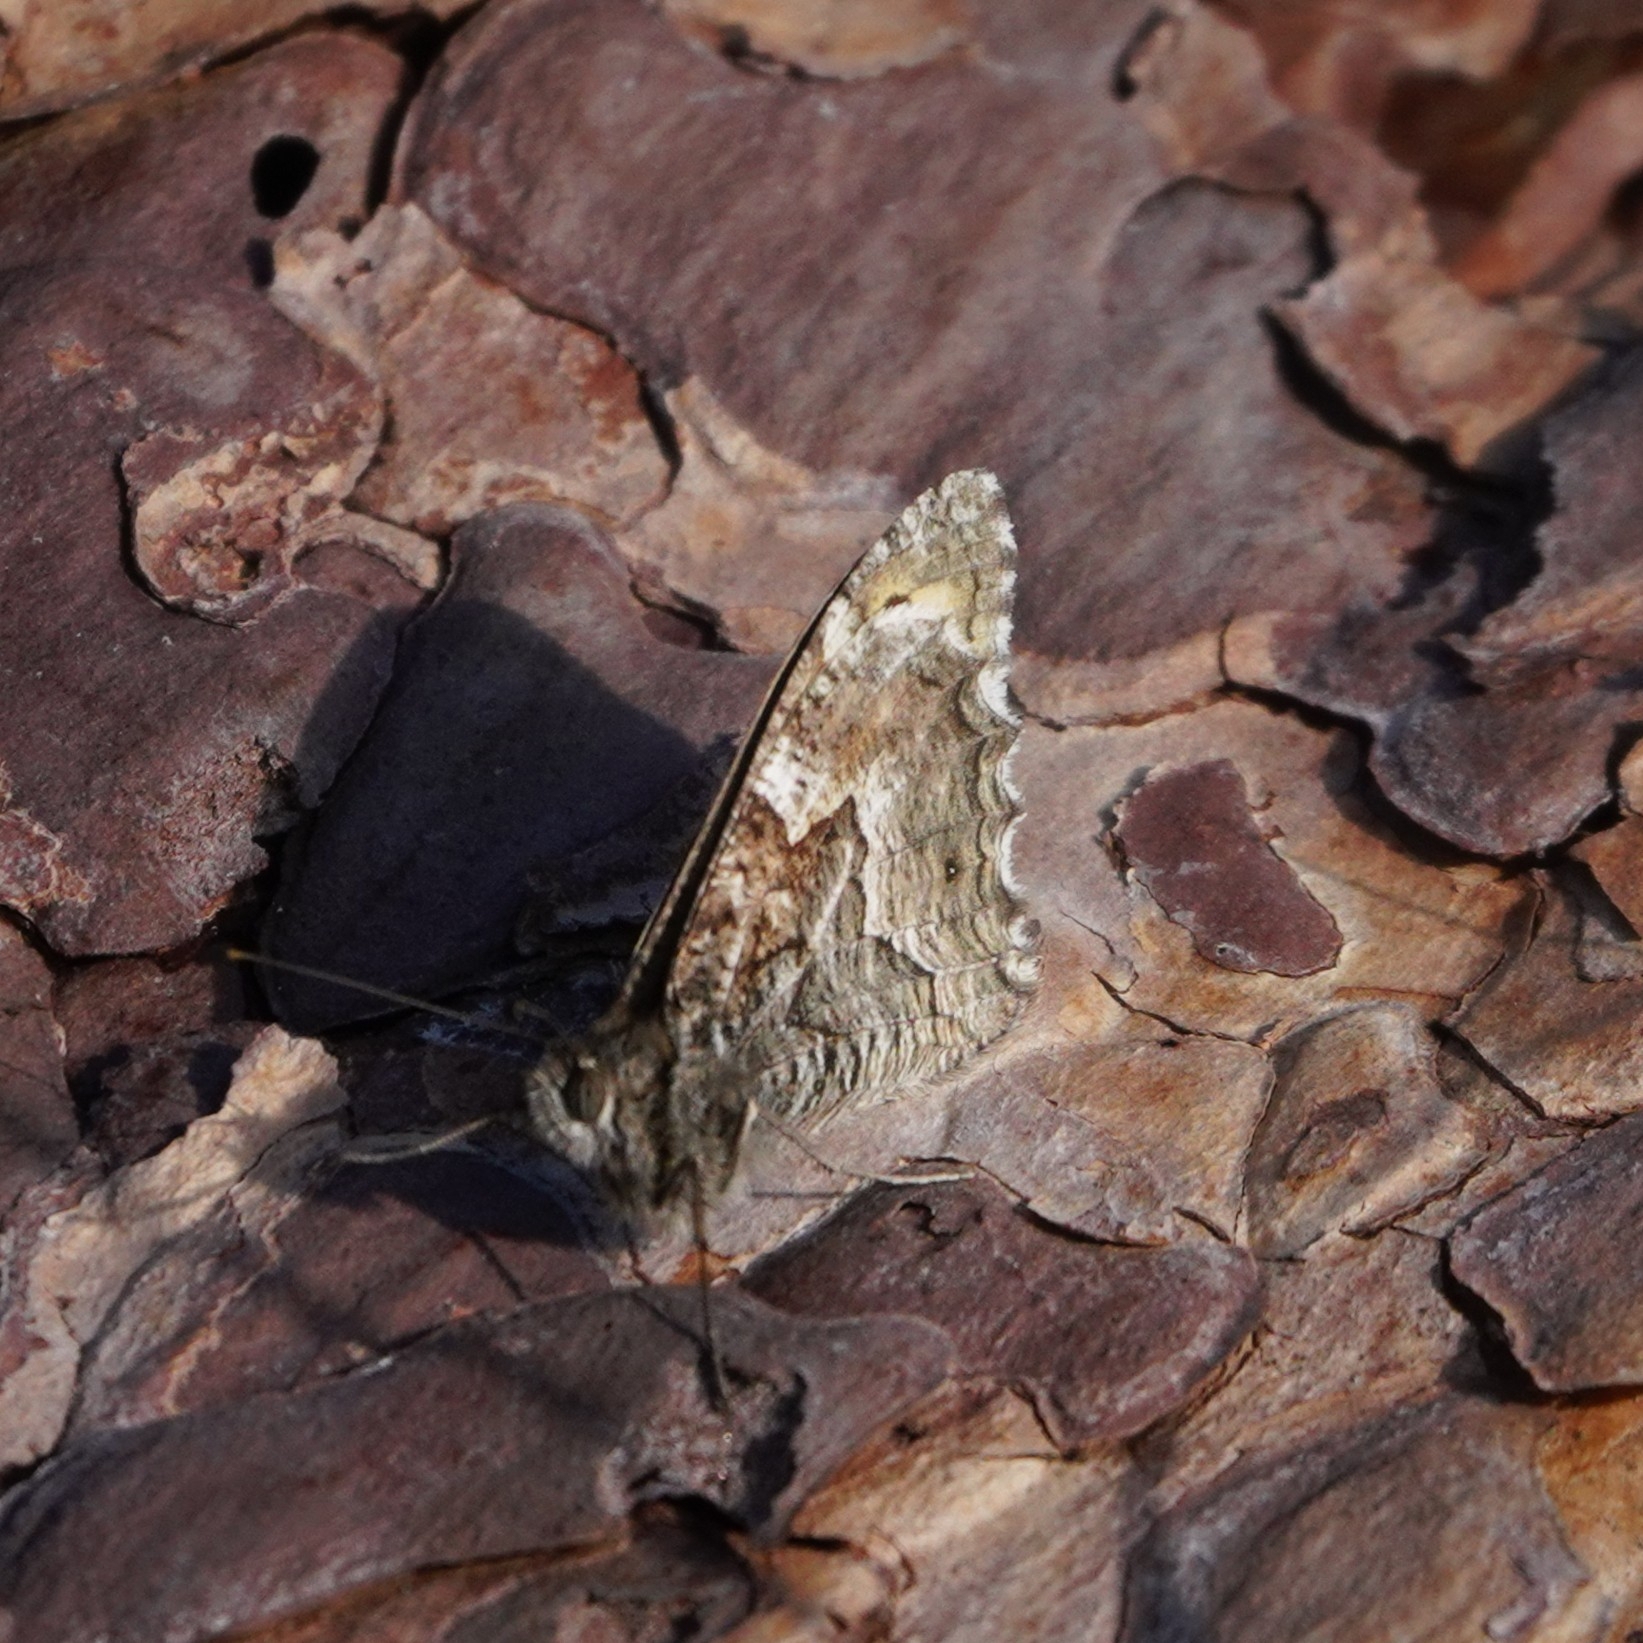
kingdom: Animalia
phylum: Arthropoda
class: Insecta
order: Lepidoptera
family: Nymphalidae
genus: Hipparchia
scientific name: Hipparchia semele
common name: Grayling
